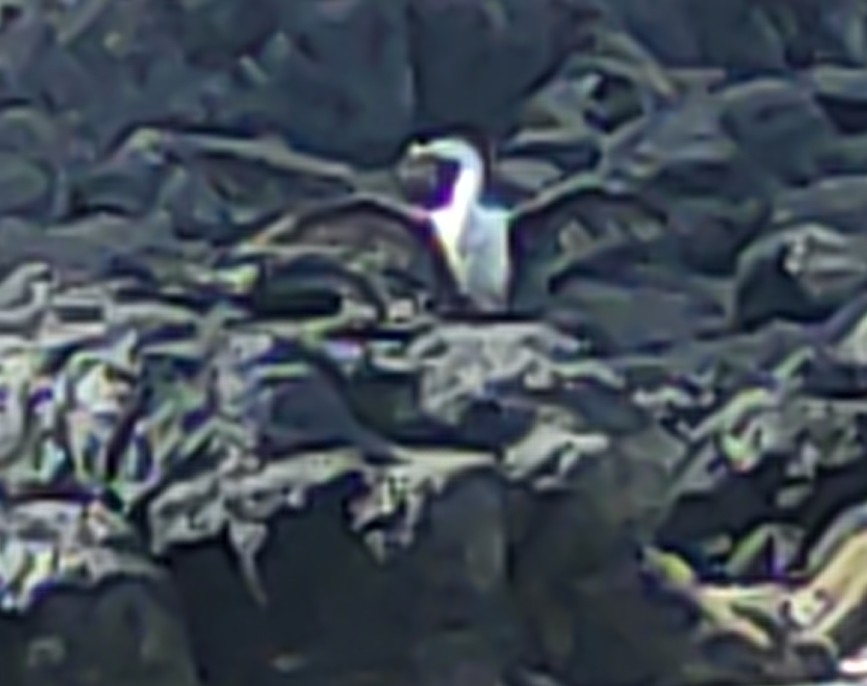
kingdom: Animalia
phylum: Chordata
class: Aves
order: Suliformes
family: Phalacrocoracidae
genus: Phalacrocorax
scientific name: Phalacrocorax varius
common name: Pied cormorant
